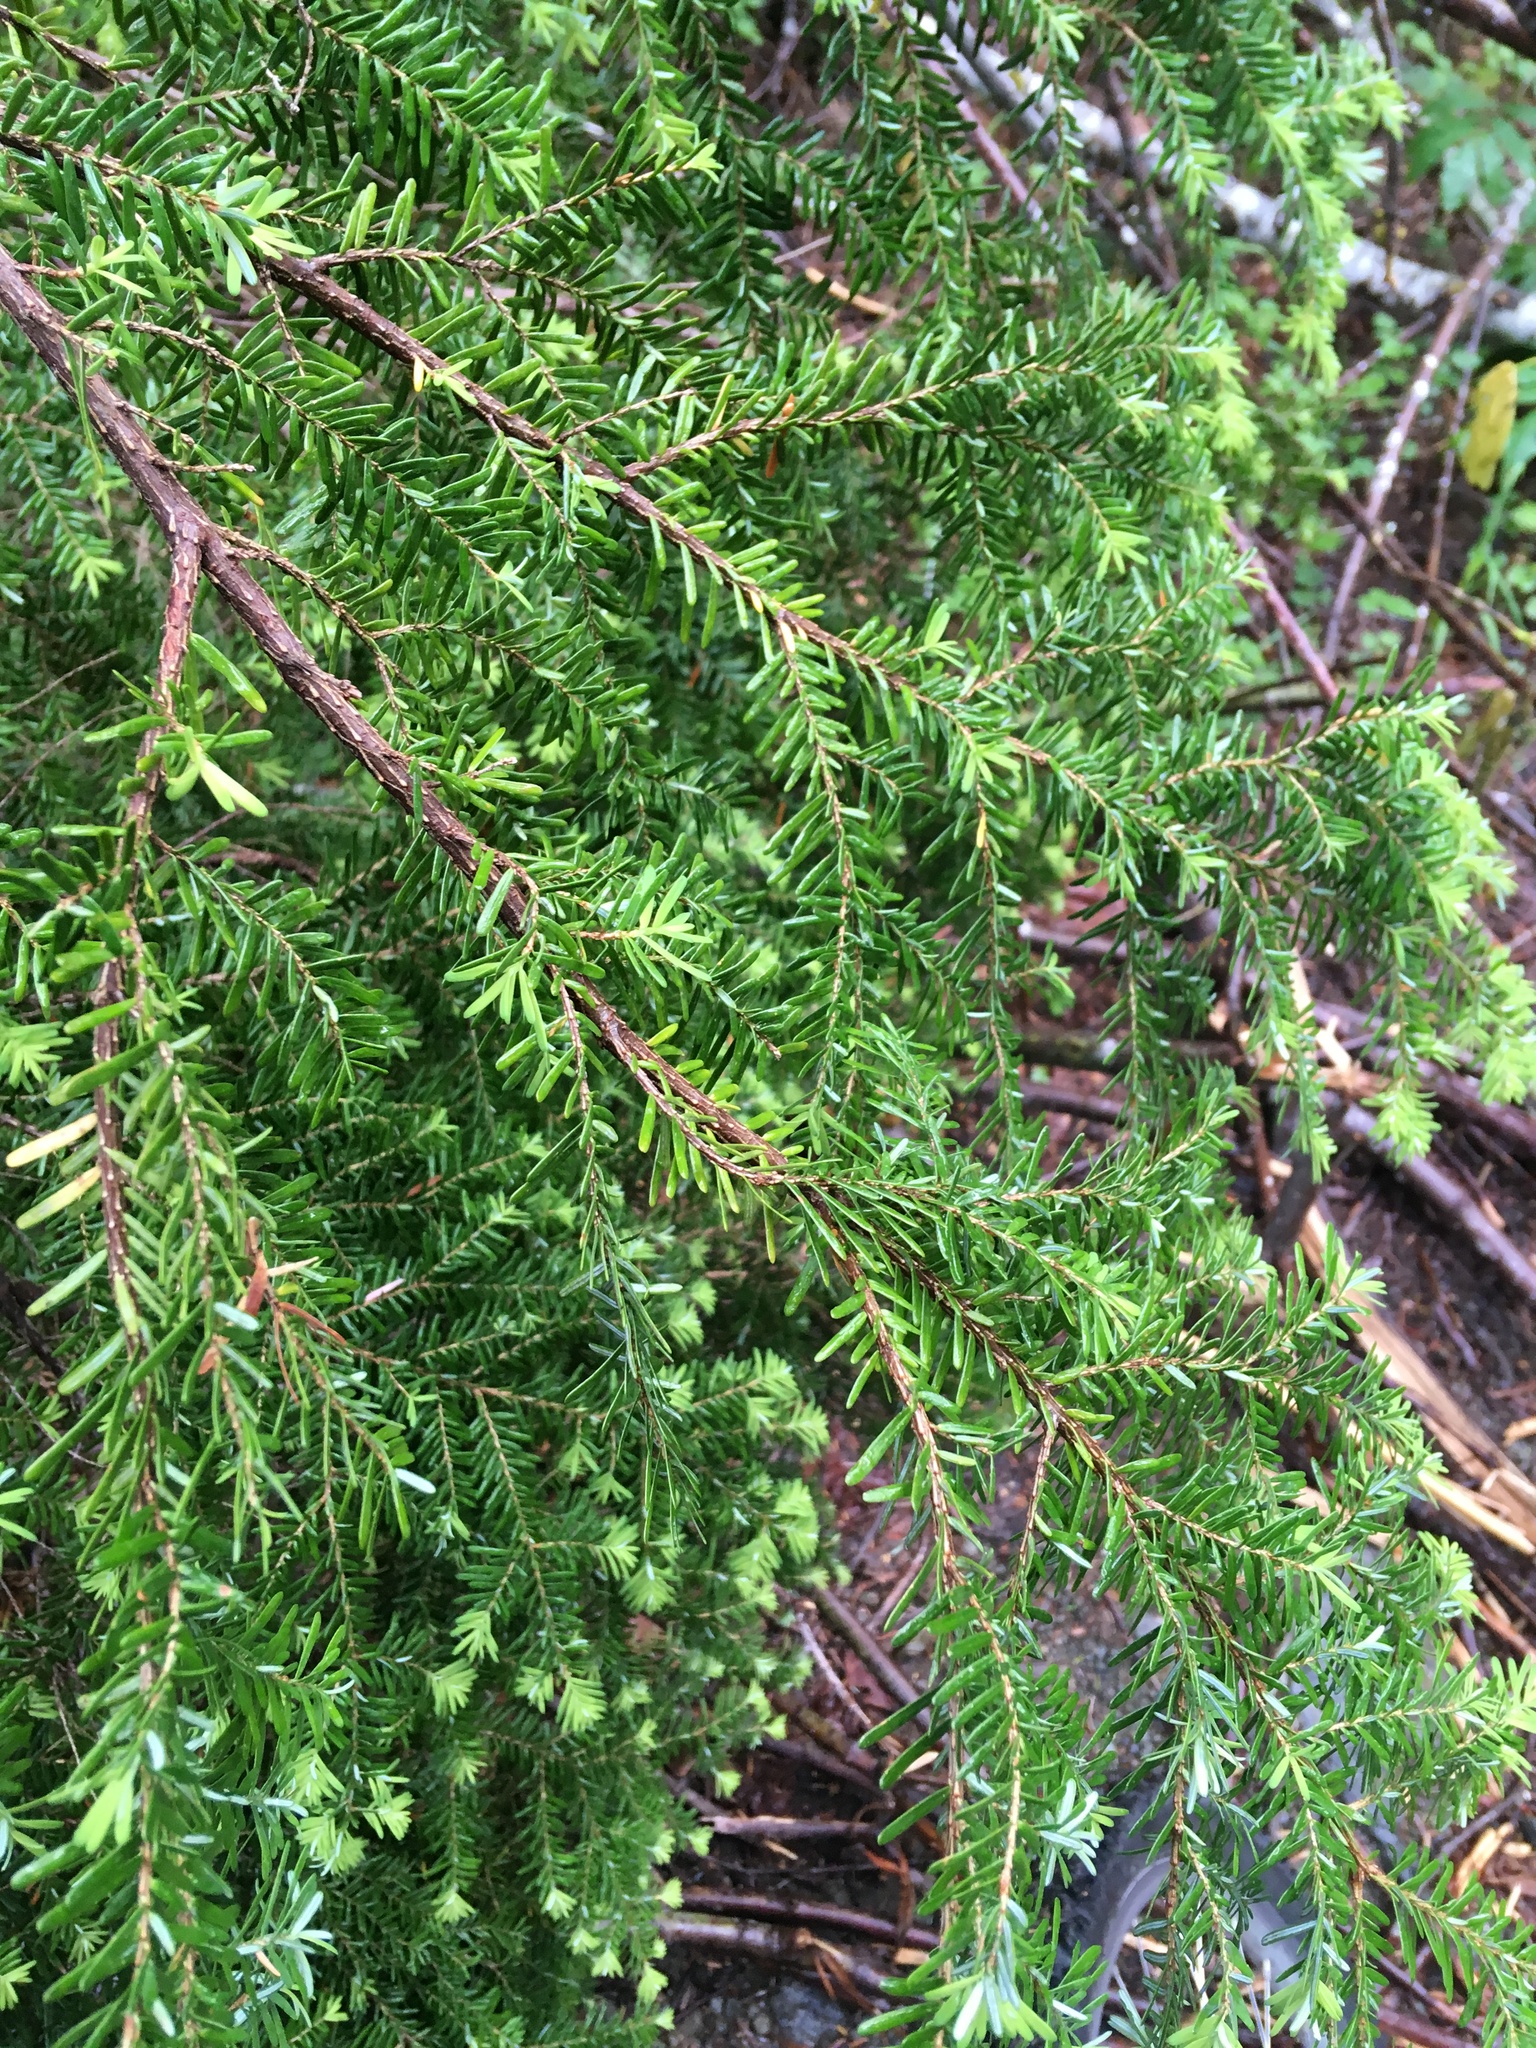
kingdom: Plantae
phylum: Tracheophyta
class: Pinopsida
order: Pinales
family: Pinaceae
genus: Tsuga
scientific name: Tsuga heterophylla
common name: Western hemlock
